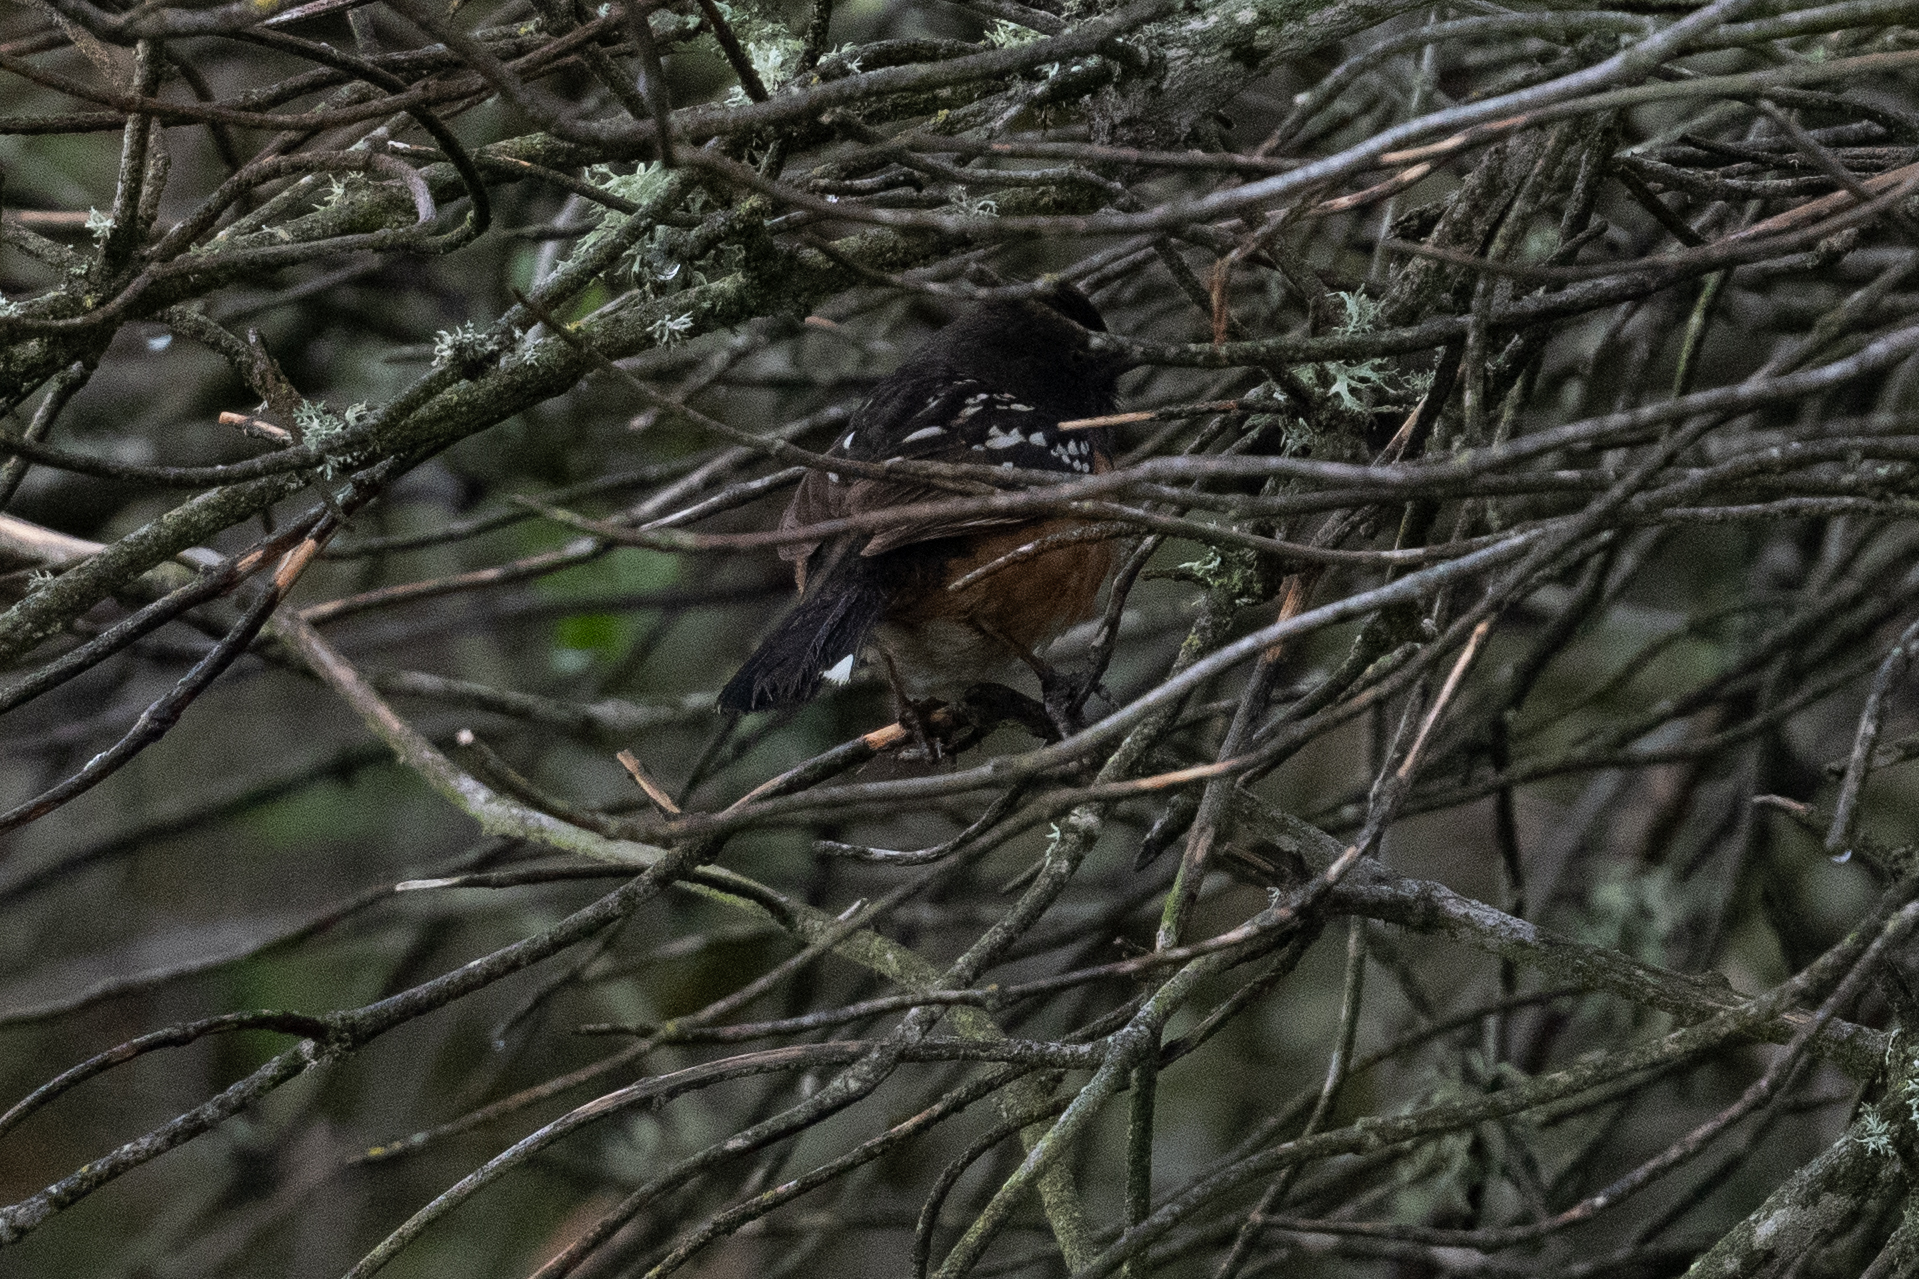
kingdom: Animalia
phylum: Chordata
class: Aves
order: Passeriformes
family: Passerellidae
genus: Pipilo
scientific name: Pipilo maculatus
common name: Spotted towhee
